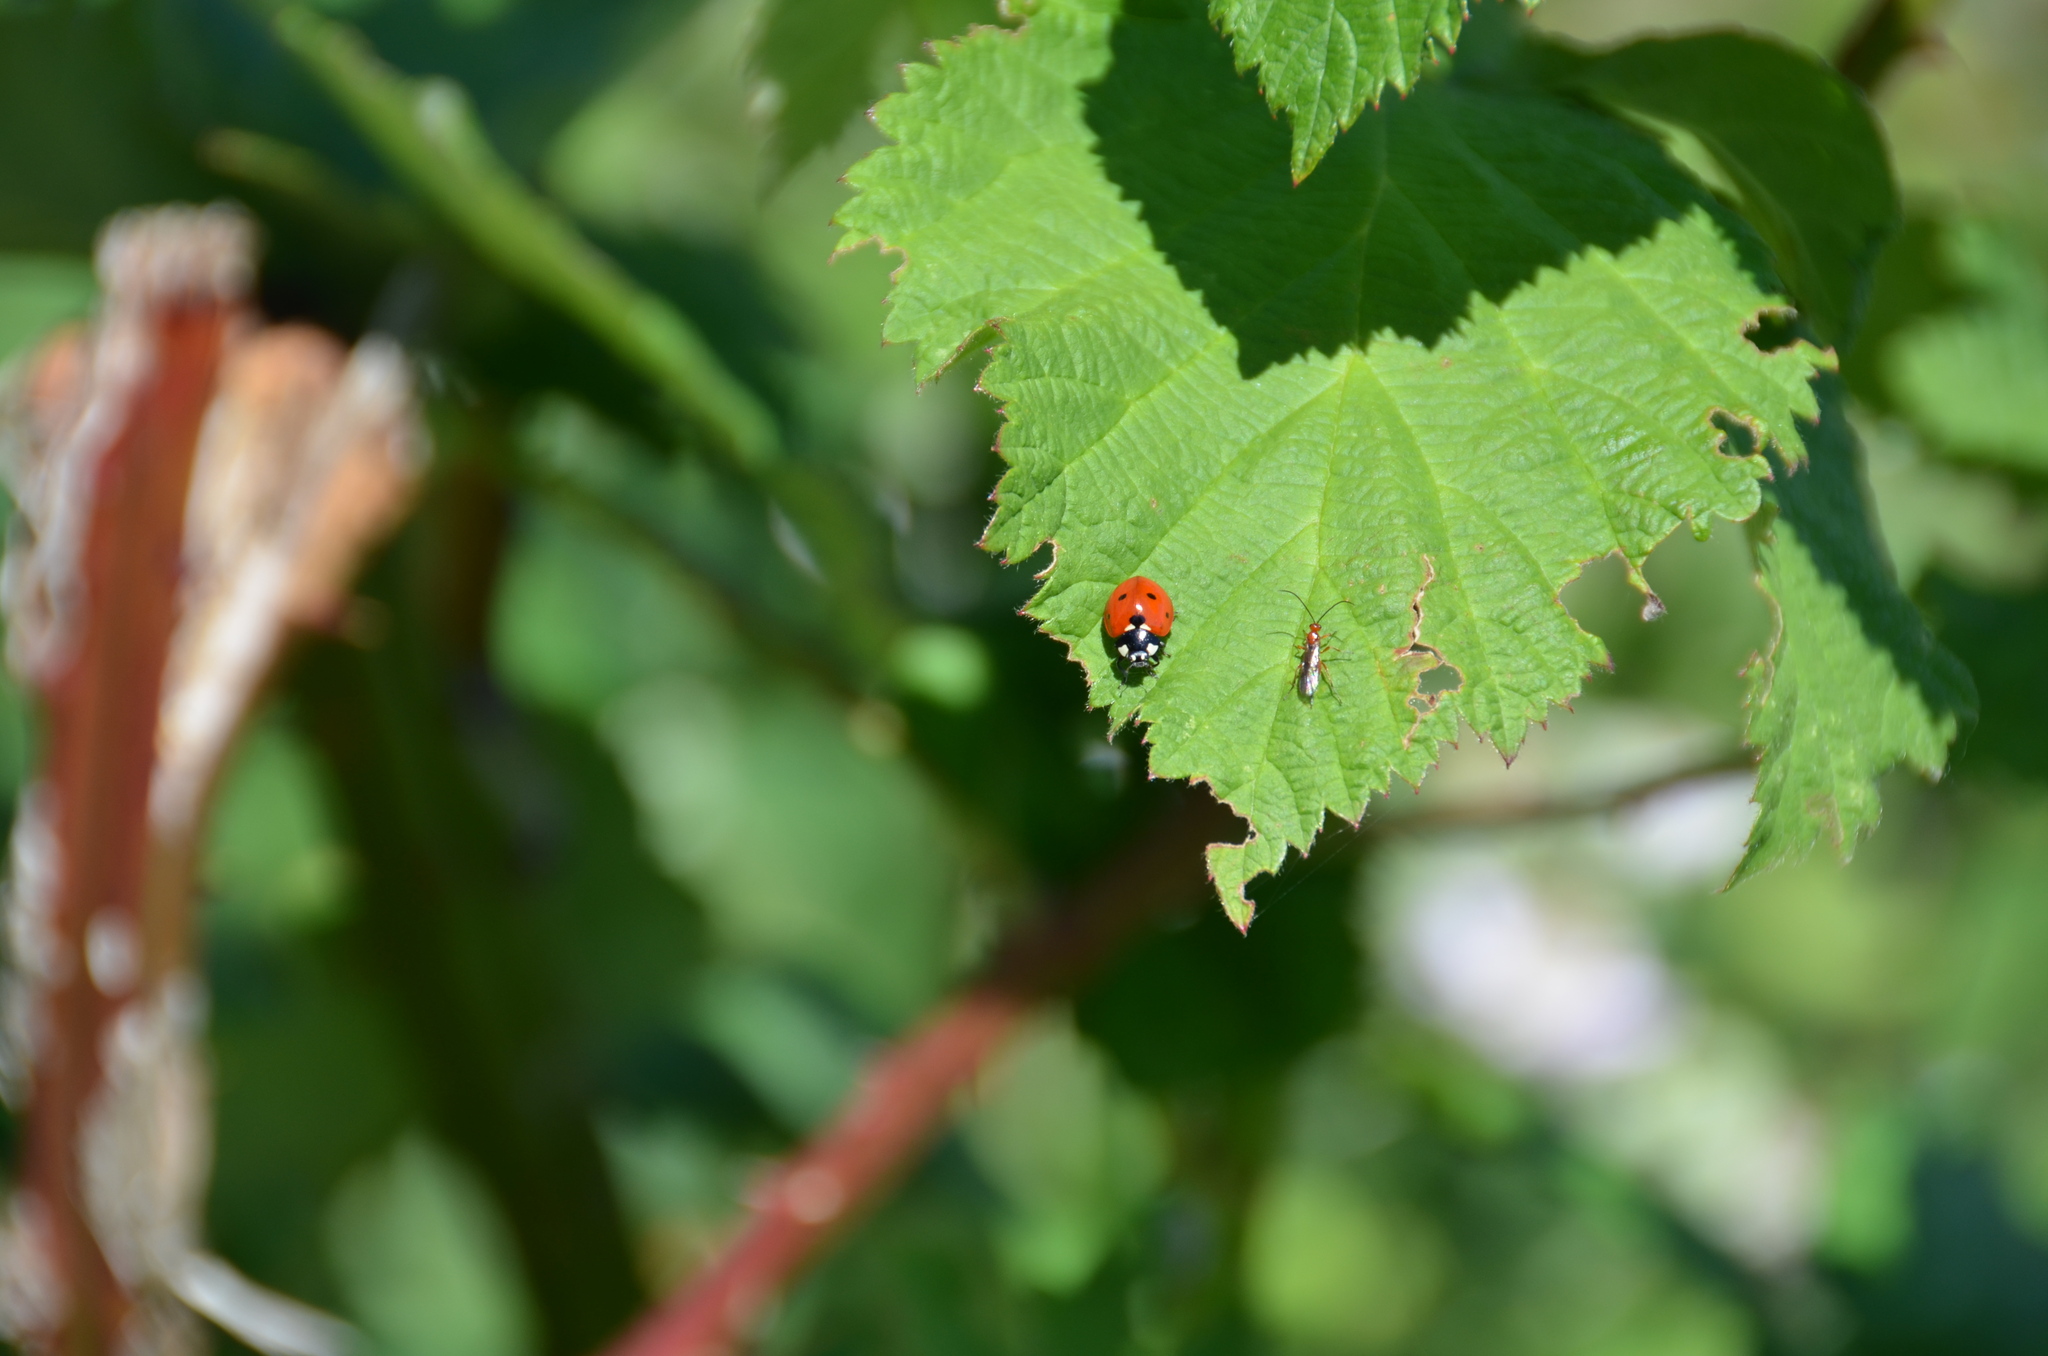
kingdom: Animalia
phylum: Arthropoda
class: Insecta
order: Coleoptera
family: Coccinellidae
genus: Coccinella
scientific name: Coccinella septempunctata
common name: Sevenspotted lady beetle
